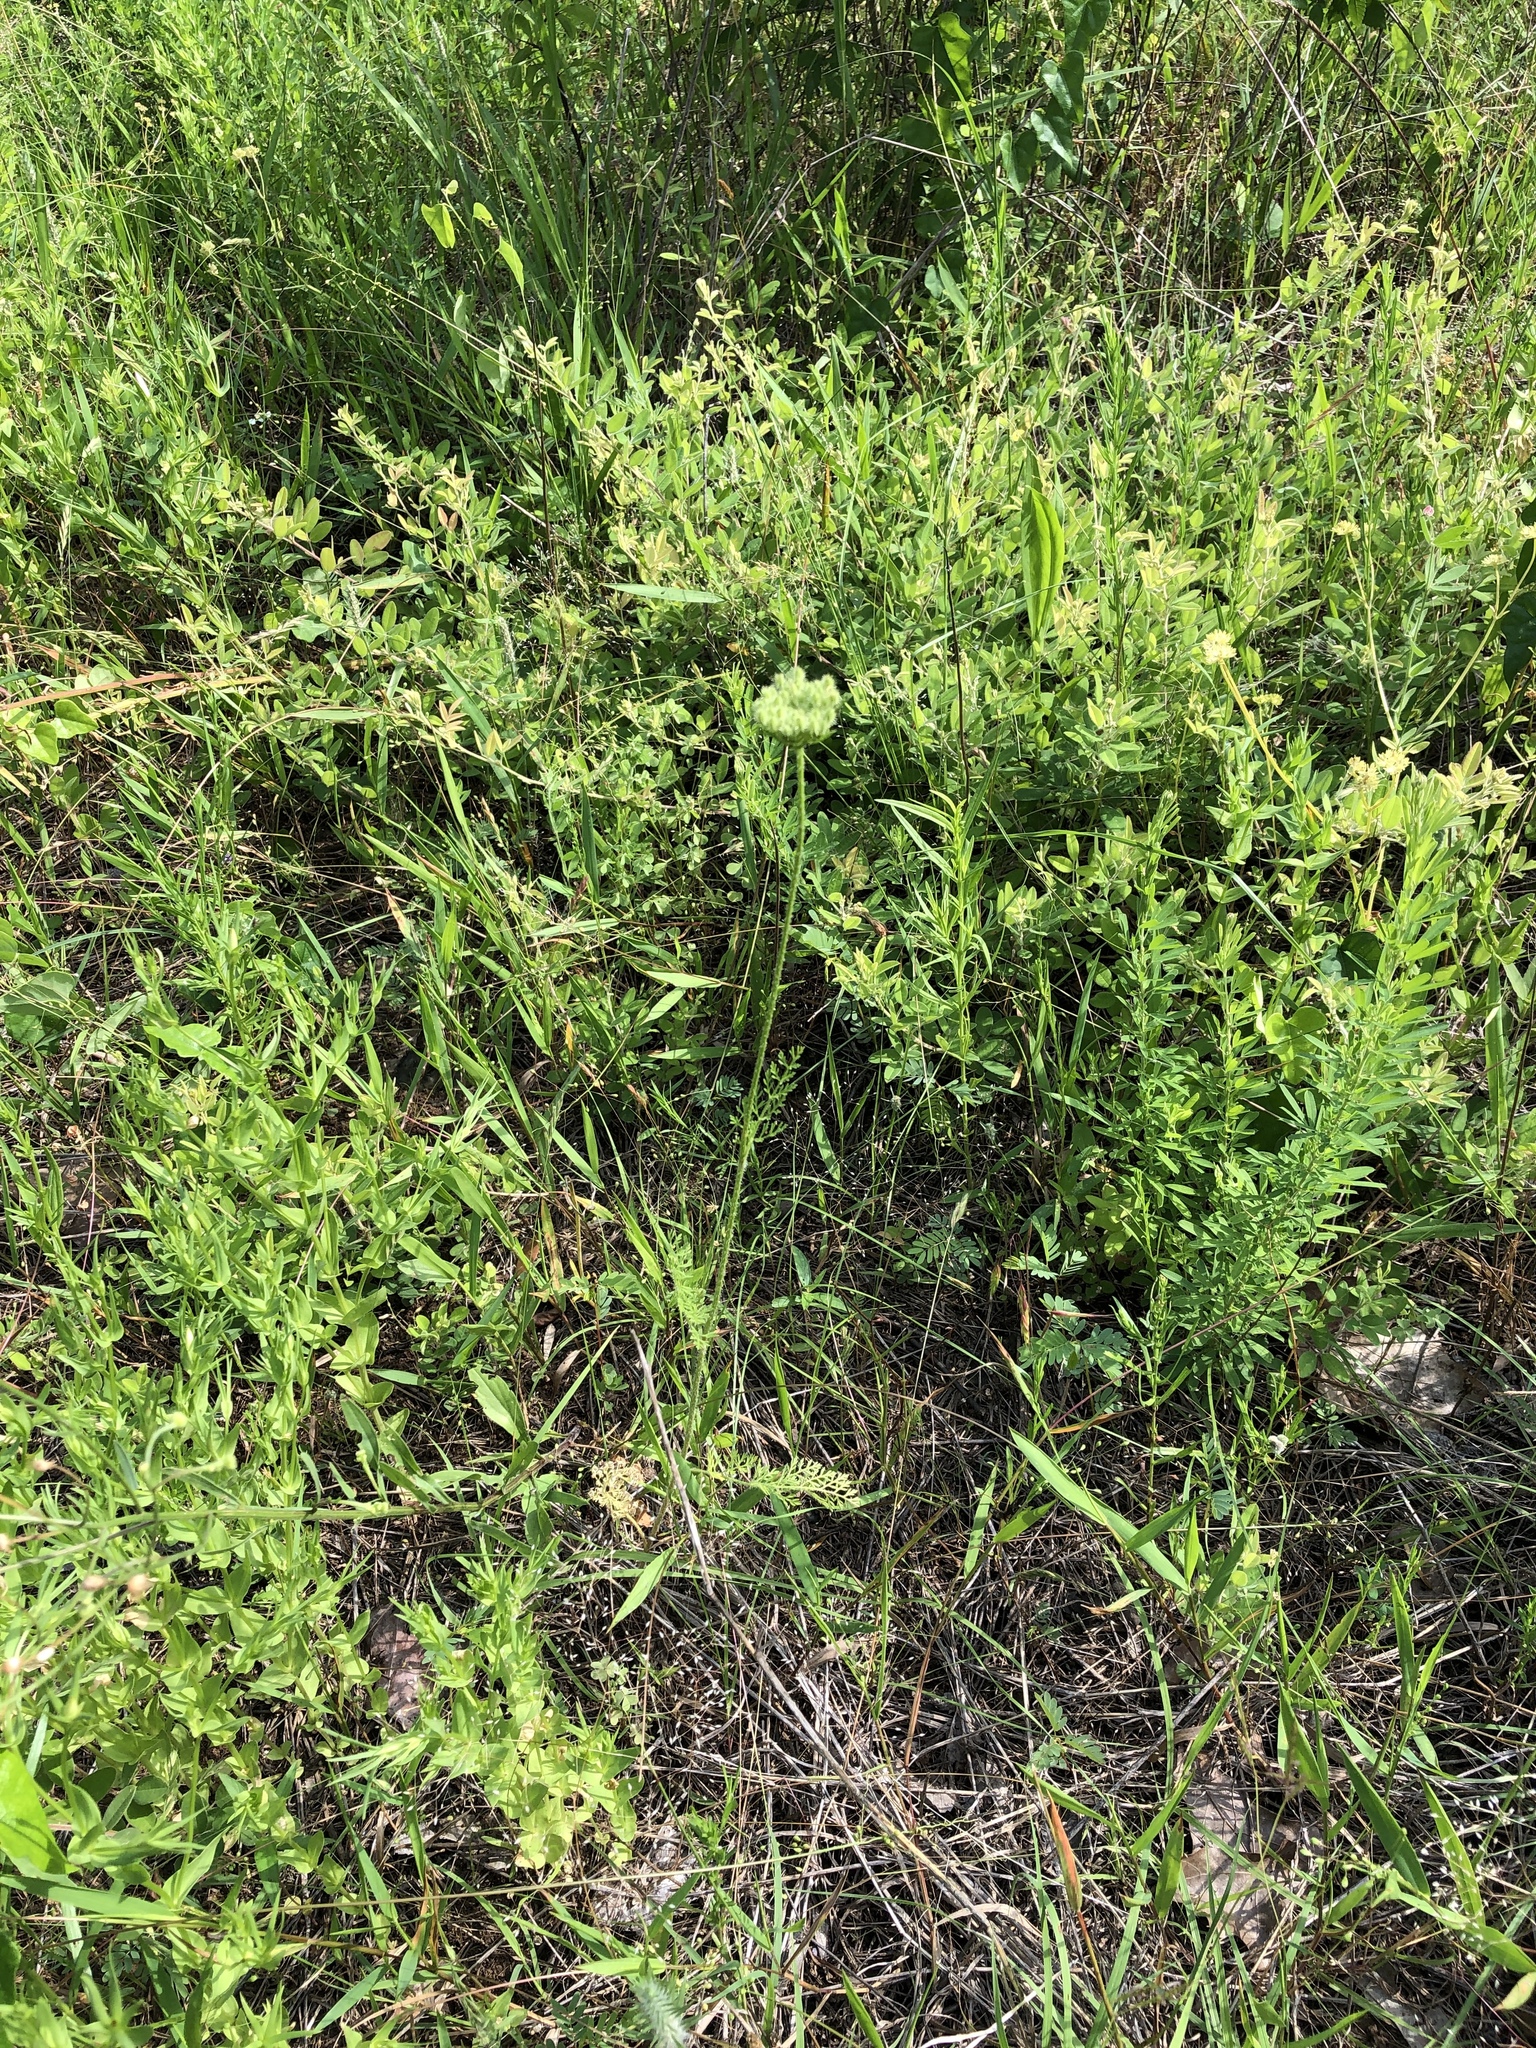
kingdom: Plantae
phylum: Tracheophyta
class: Magnoliopsida
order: Apiales
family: Apiaceae
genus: Daucus
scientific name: Daucus pusillus
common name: Southwest wild carrot
